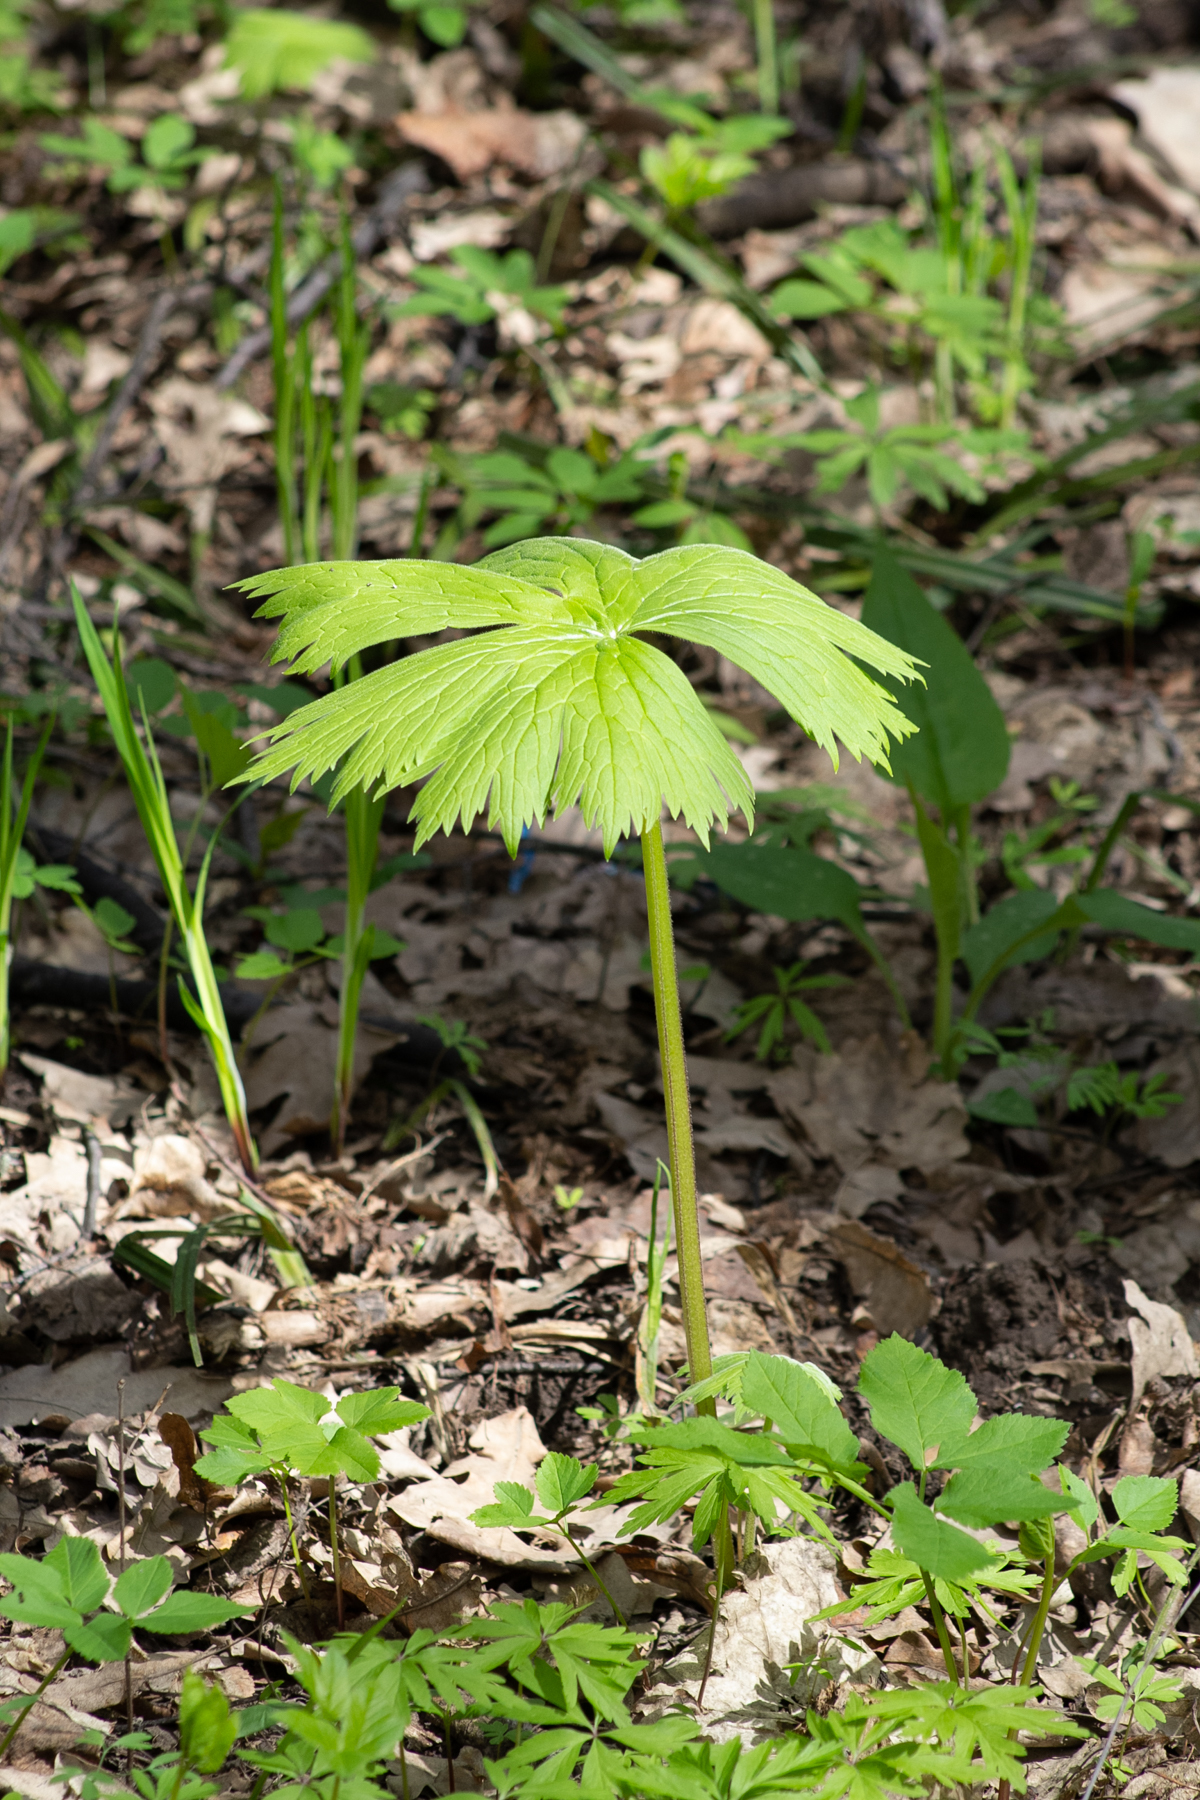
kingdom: Plantae
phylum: Tracheophyta
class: Magnoliopsida
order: Ranunculales
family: Ranunculaceae
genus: Aconitum
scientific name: Aconitum septentrionale
